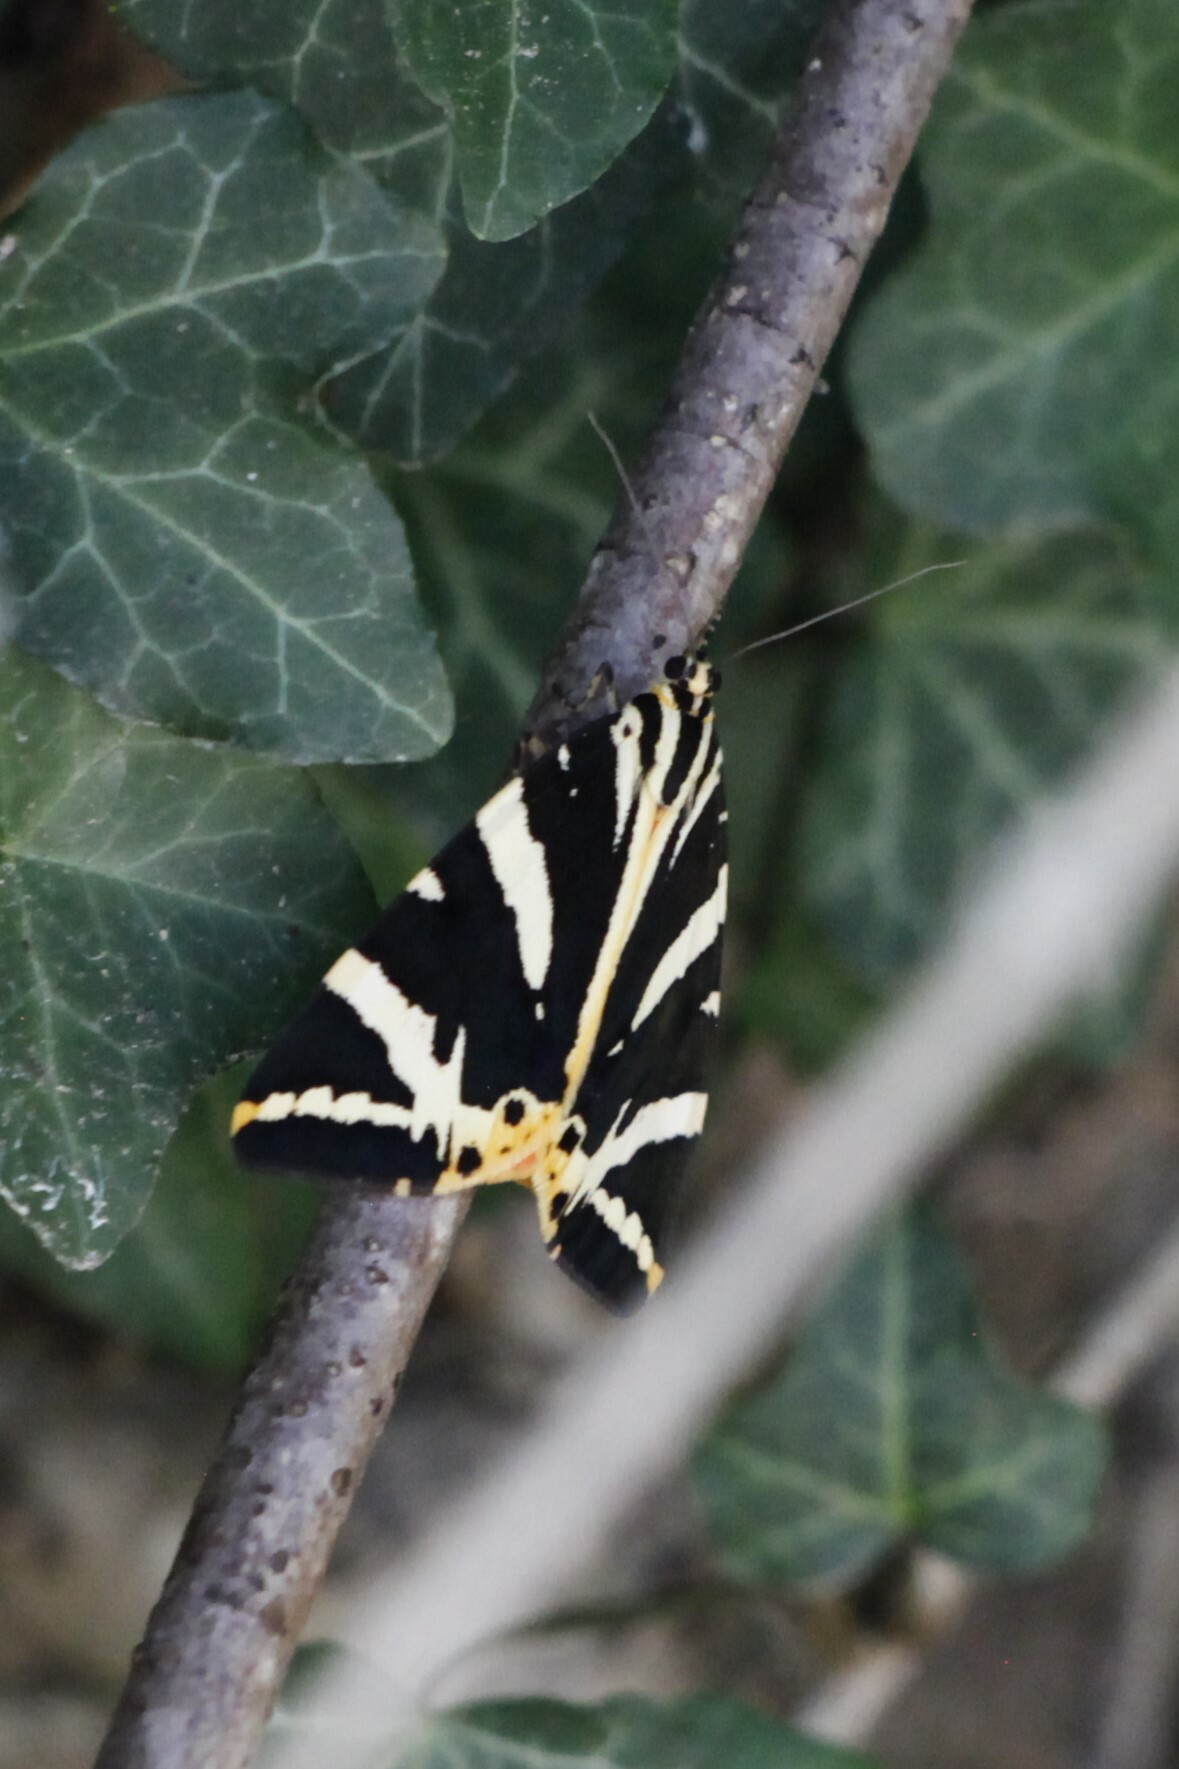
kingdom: Animalia
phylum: Arthropoda
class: Insecta
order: Lepidoptera
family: Erebidae
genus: Euplagia
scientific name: Euplagia quadripunctaria
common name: Jersey tiger
